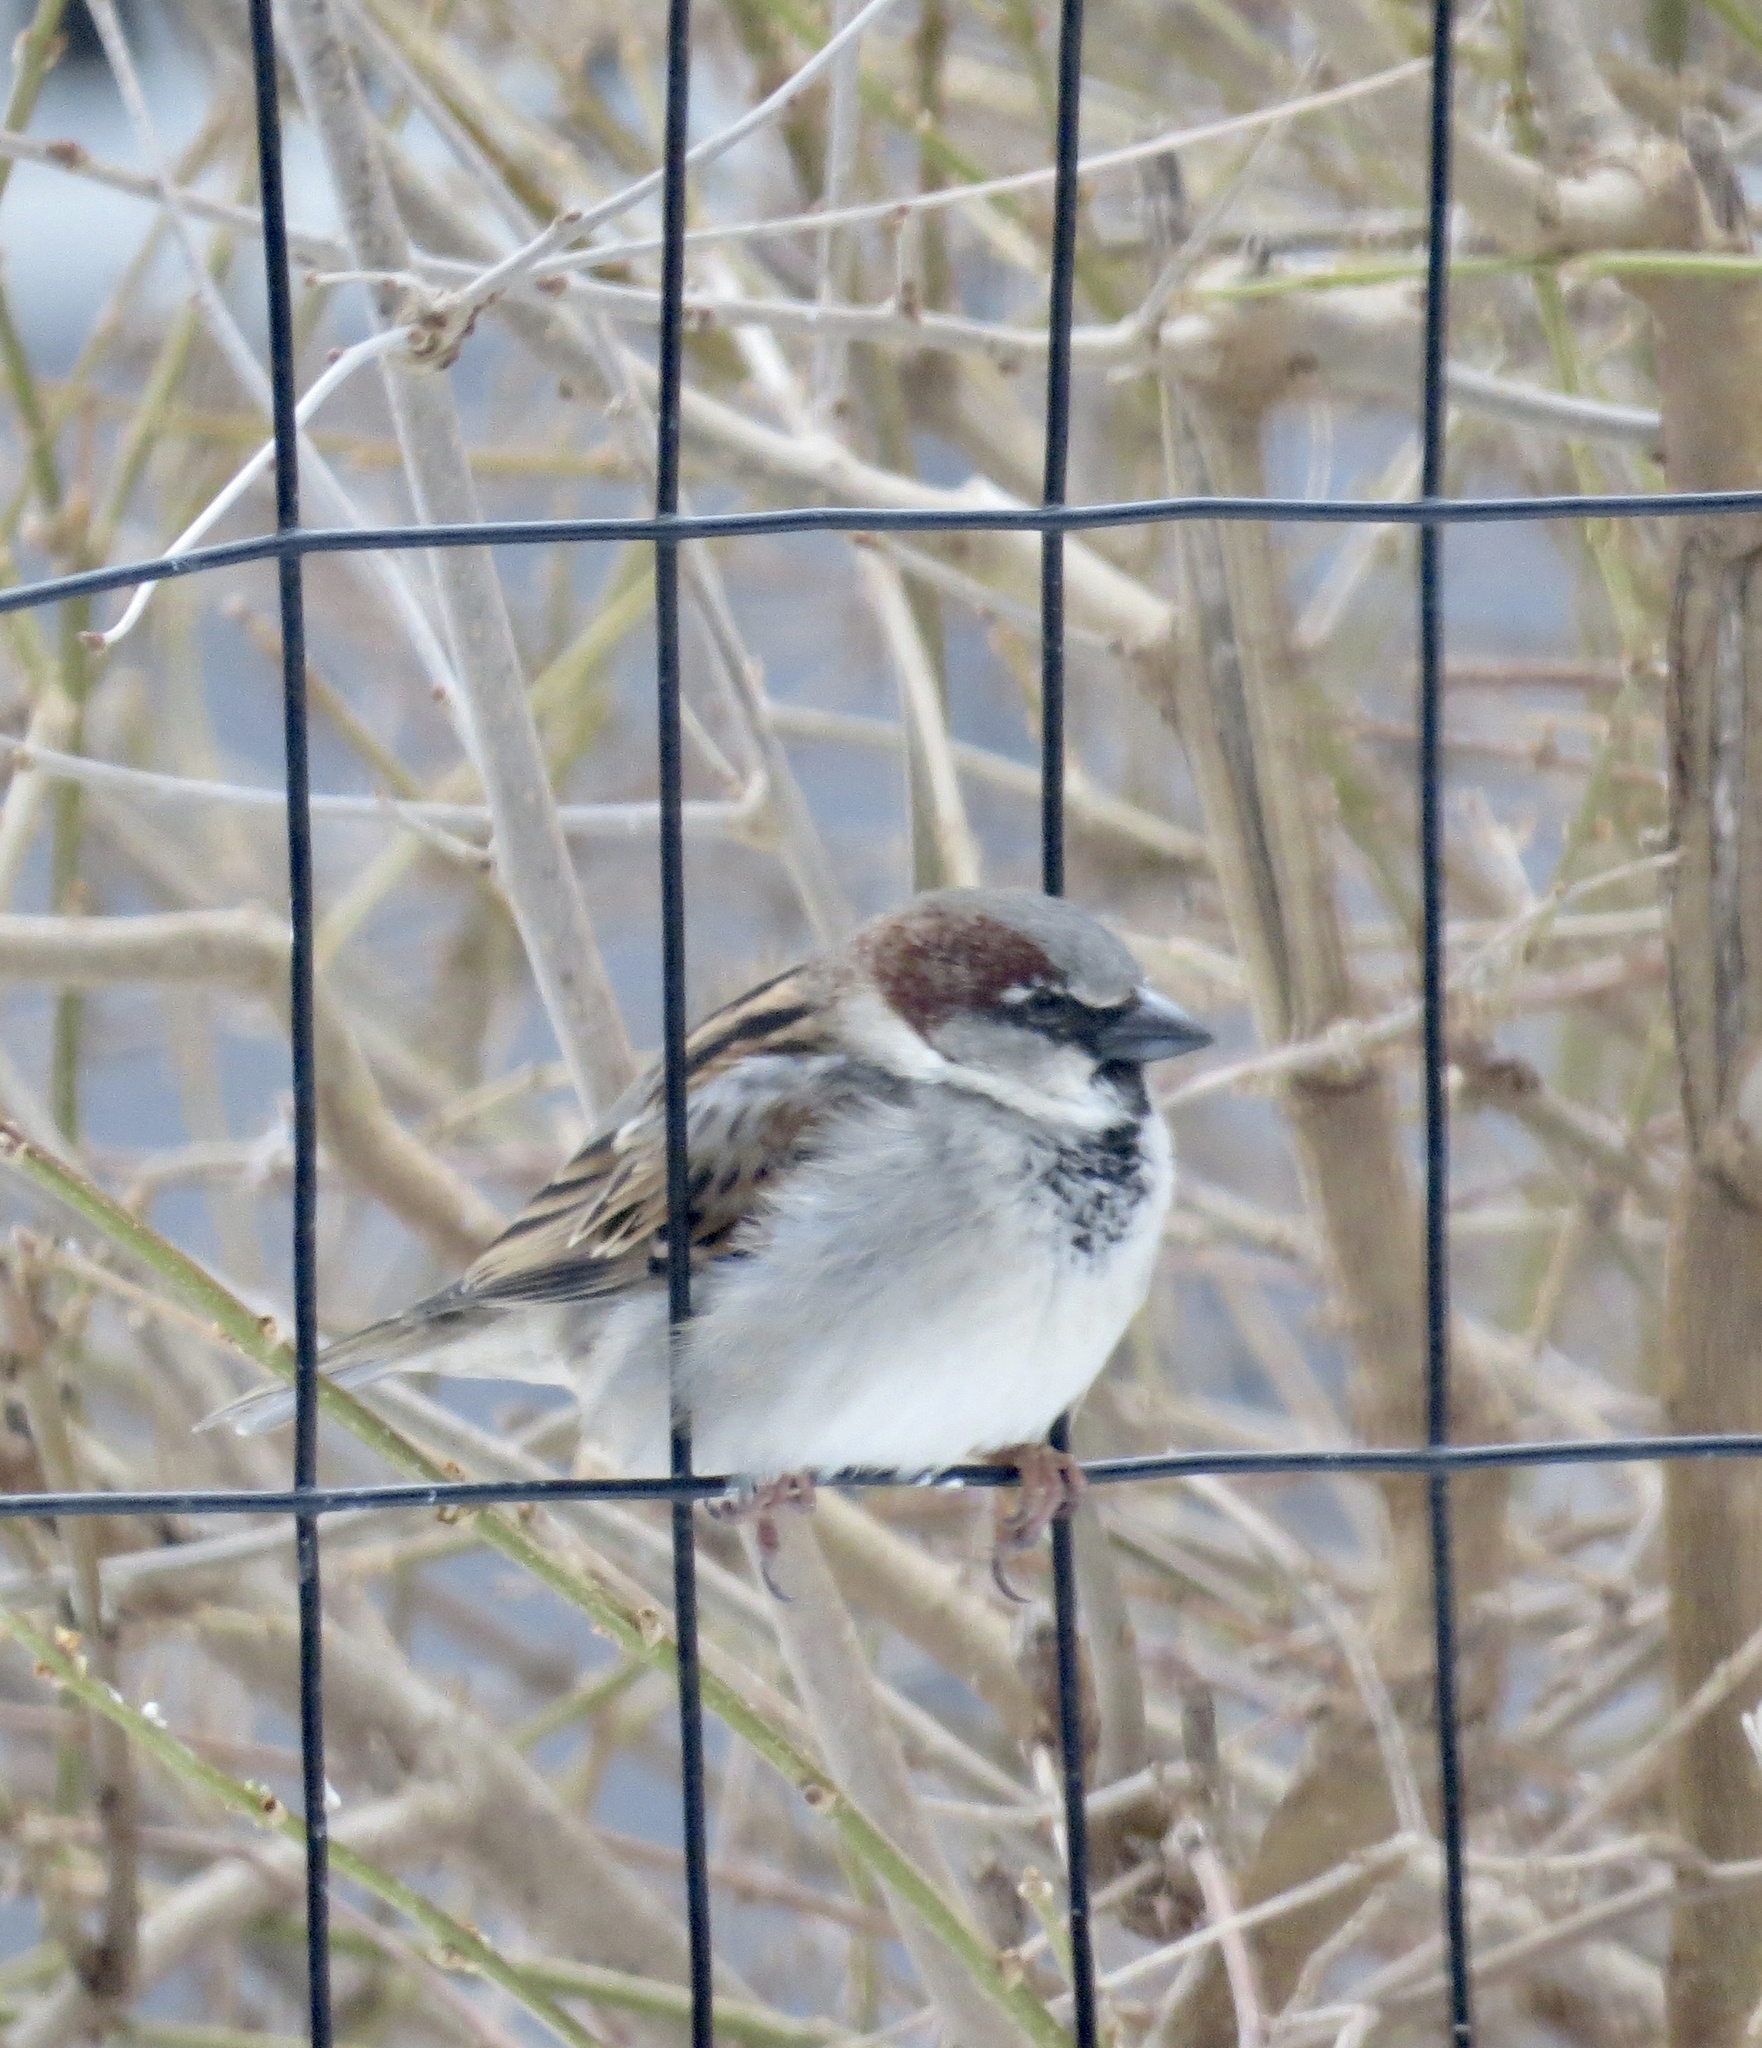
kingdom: Animalia
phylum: Chordata
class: Aves
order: Passeriformes
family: Passeridae
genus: Passer
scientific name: Passer domesticus
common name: House sparrow
